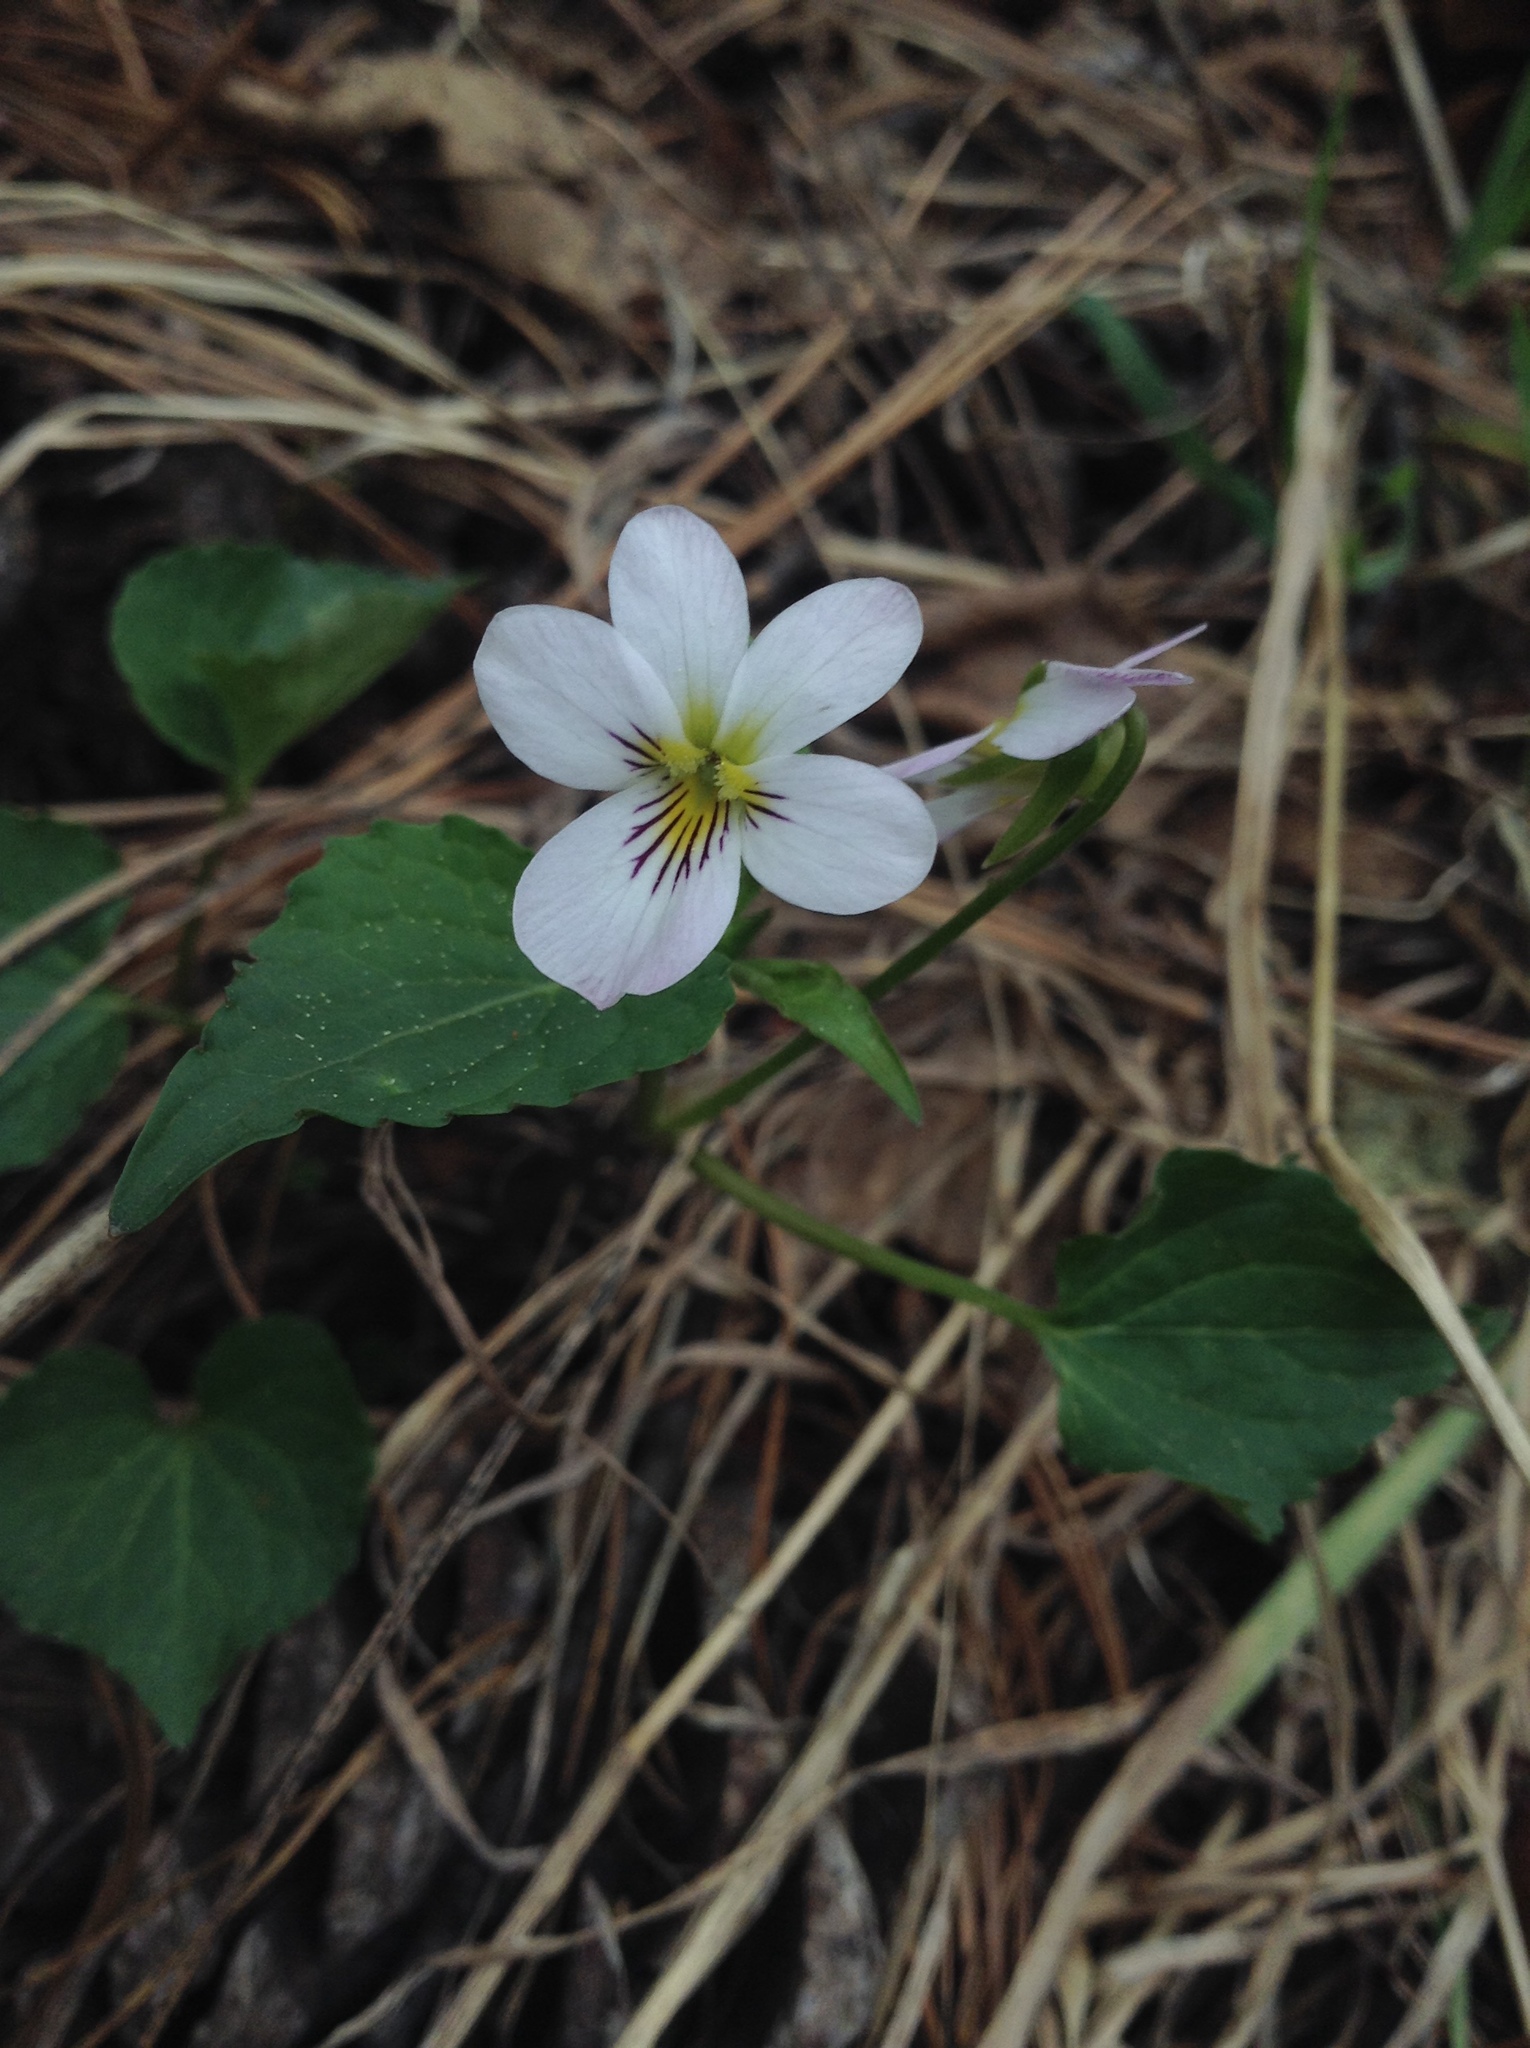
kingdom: Plantae
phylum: Tracheophyta
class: Magnoliopsida
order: Malpighiales
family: Violaceae
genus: Viola
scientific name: Viola canadensis
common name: Canada violet
